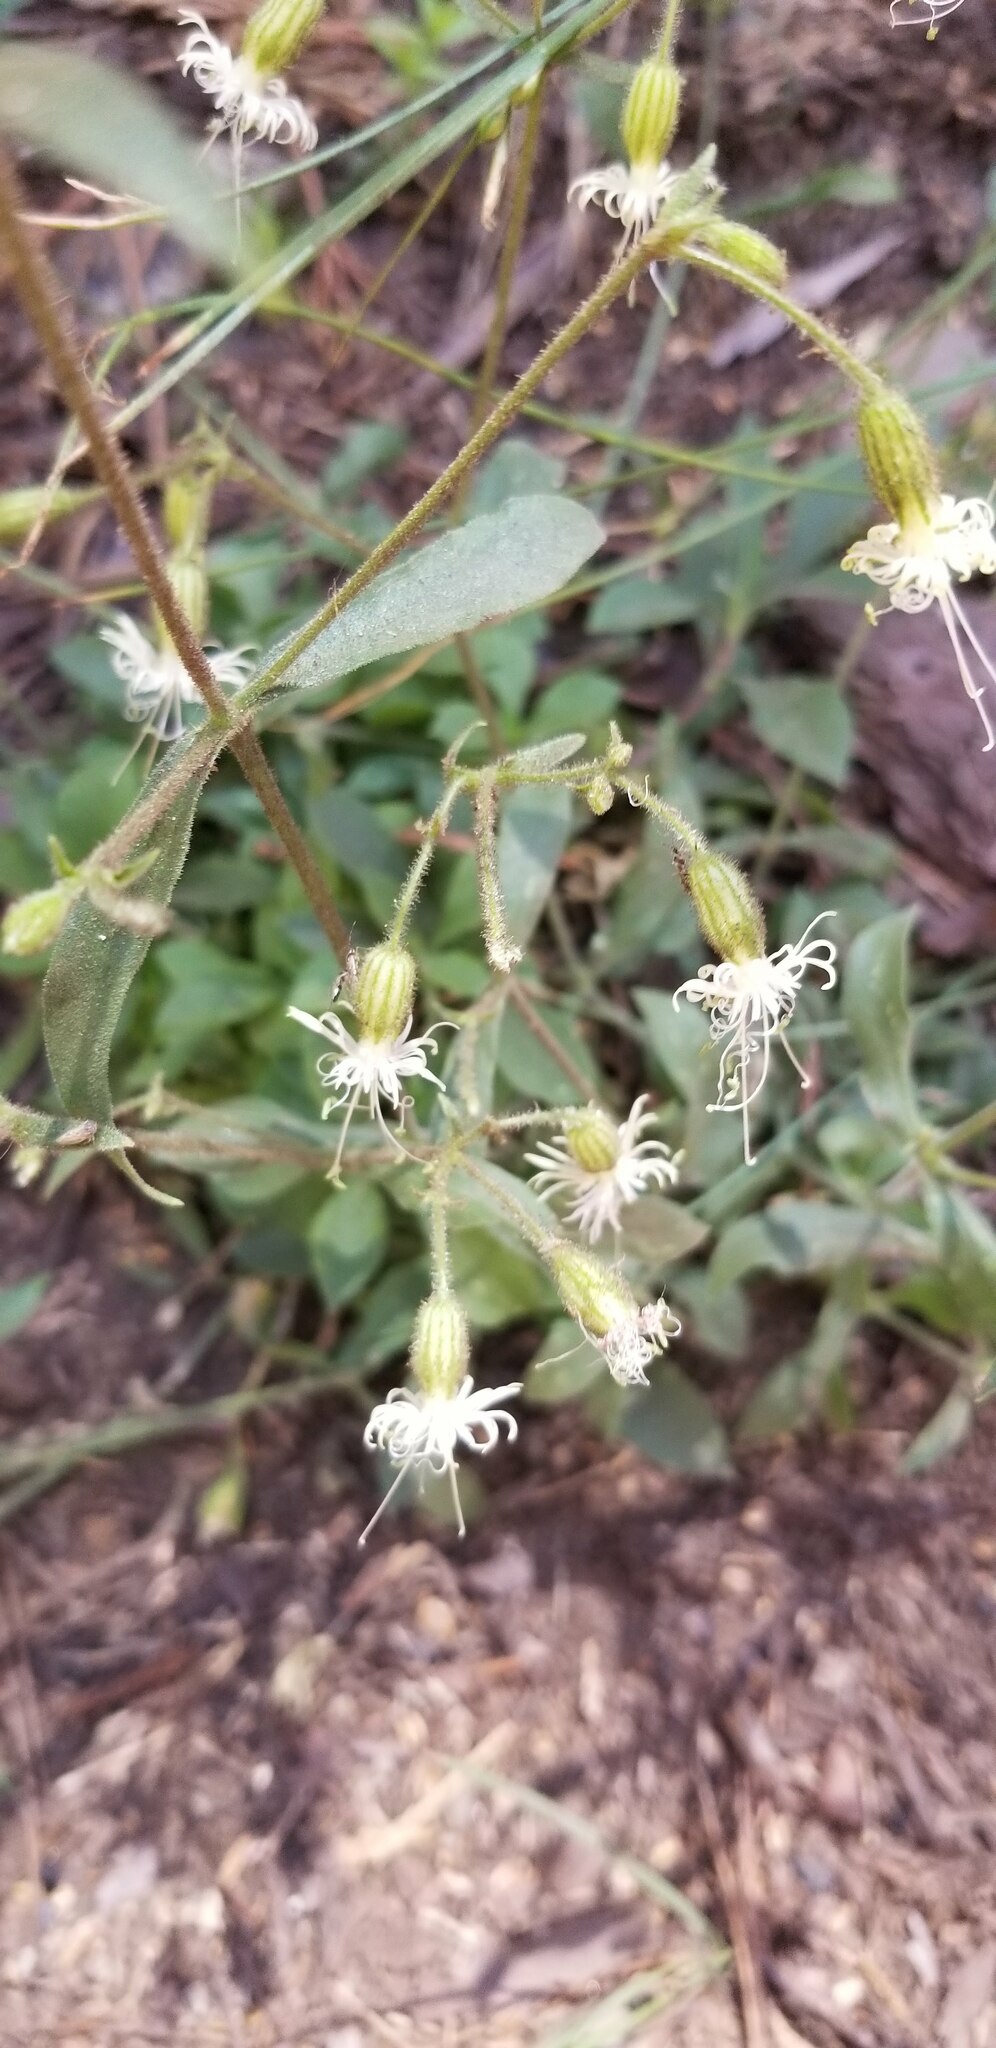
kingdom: Plantae
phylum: Tracheophyta
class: Magnoliopsida
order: Caryophyllales
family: Caryophyllaceae
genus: Silene
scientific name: Silene lemmonii
